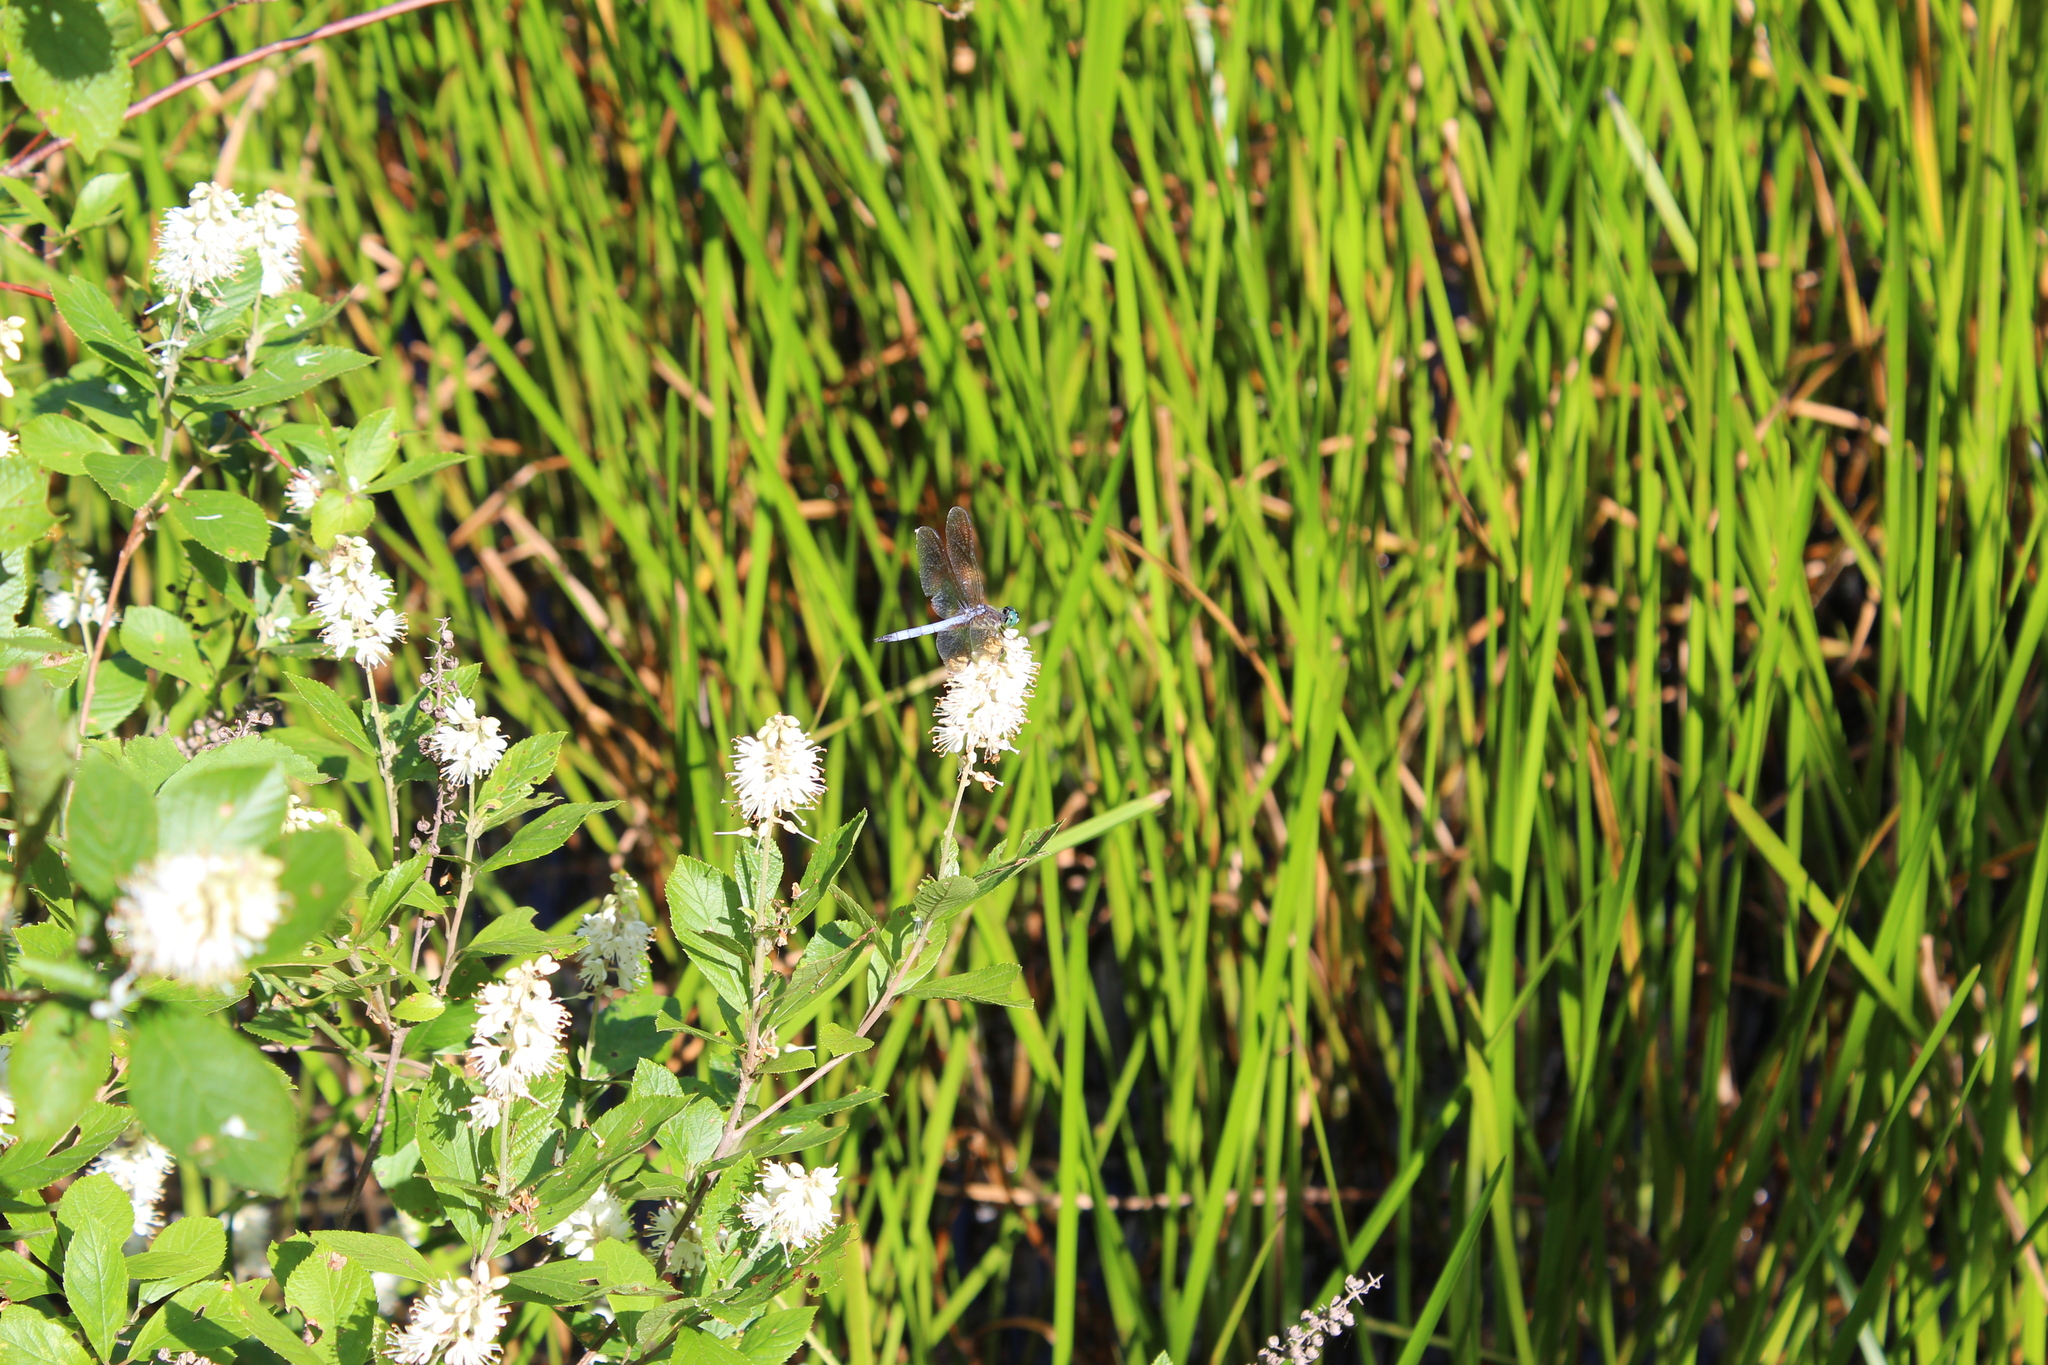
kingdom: Plantae
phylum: Tracheophyta
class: Magnoliopsida
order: Ericales
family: Clethraceae
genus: Clethra
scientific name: Clethra alnifolia
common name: Sweet pepperbush
